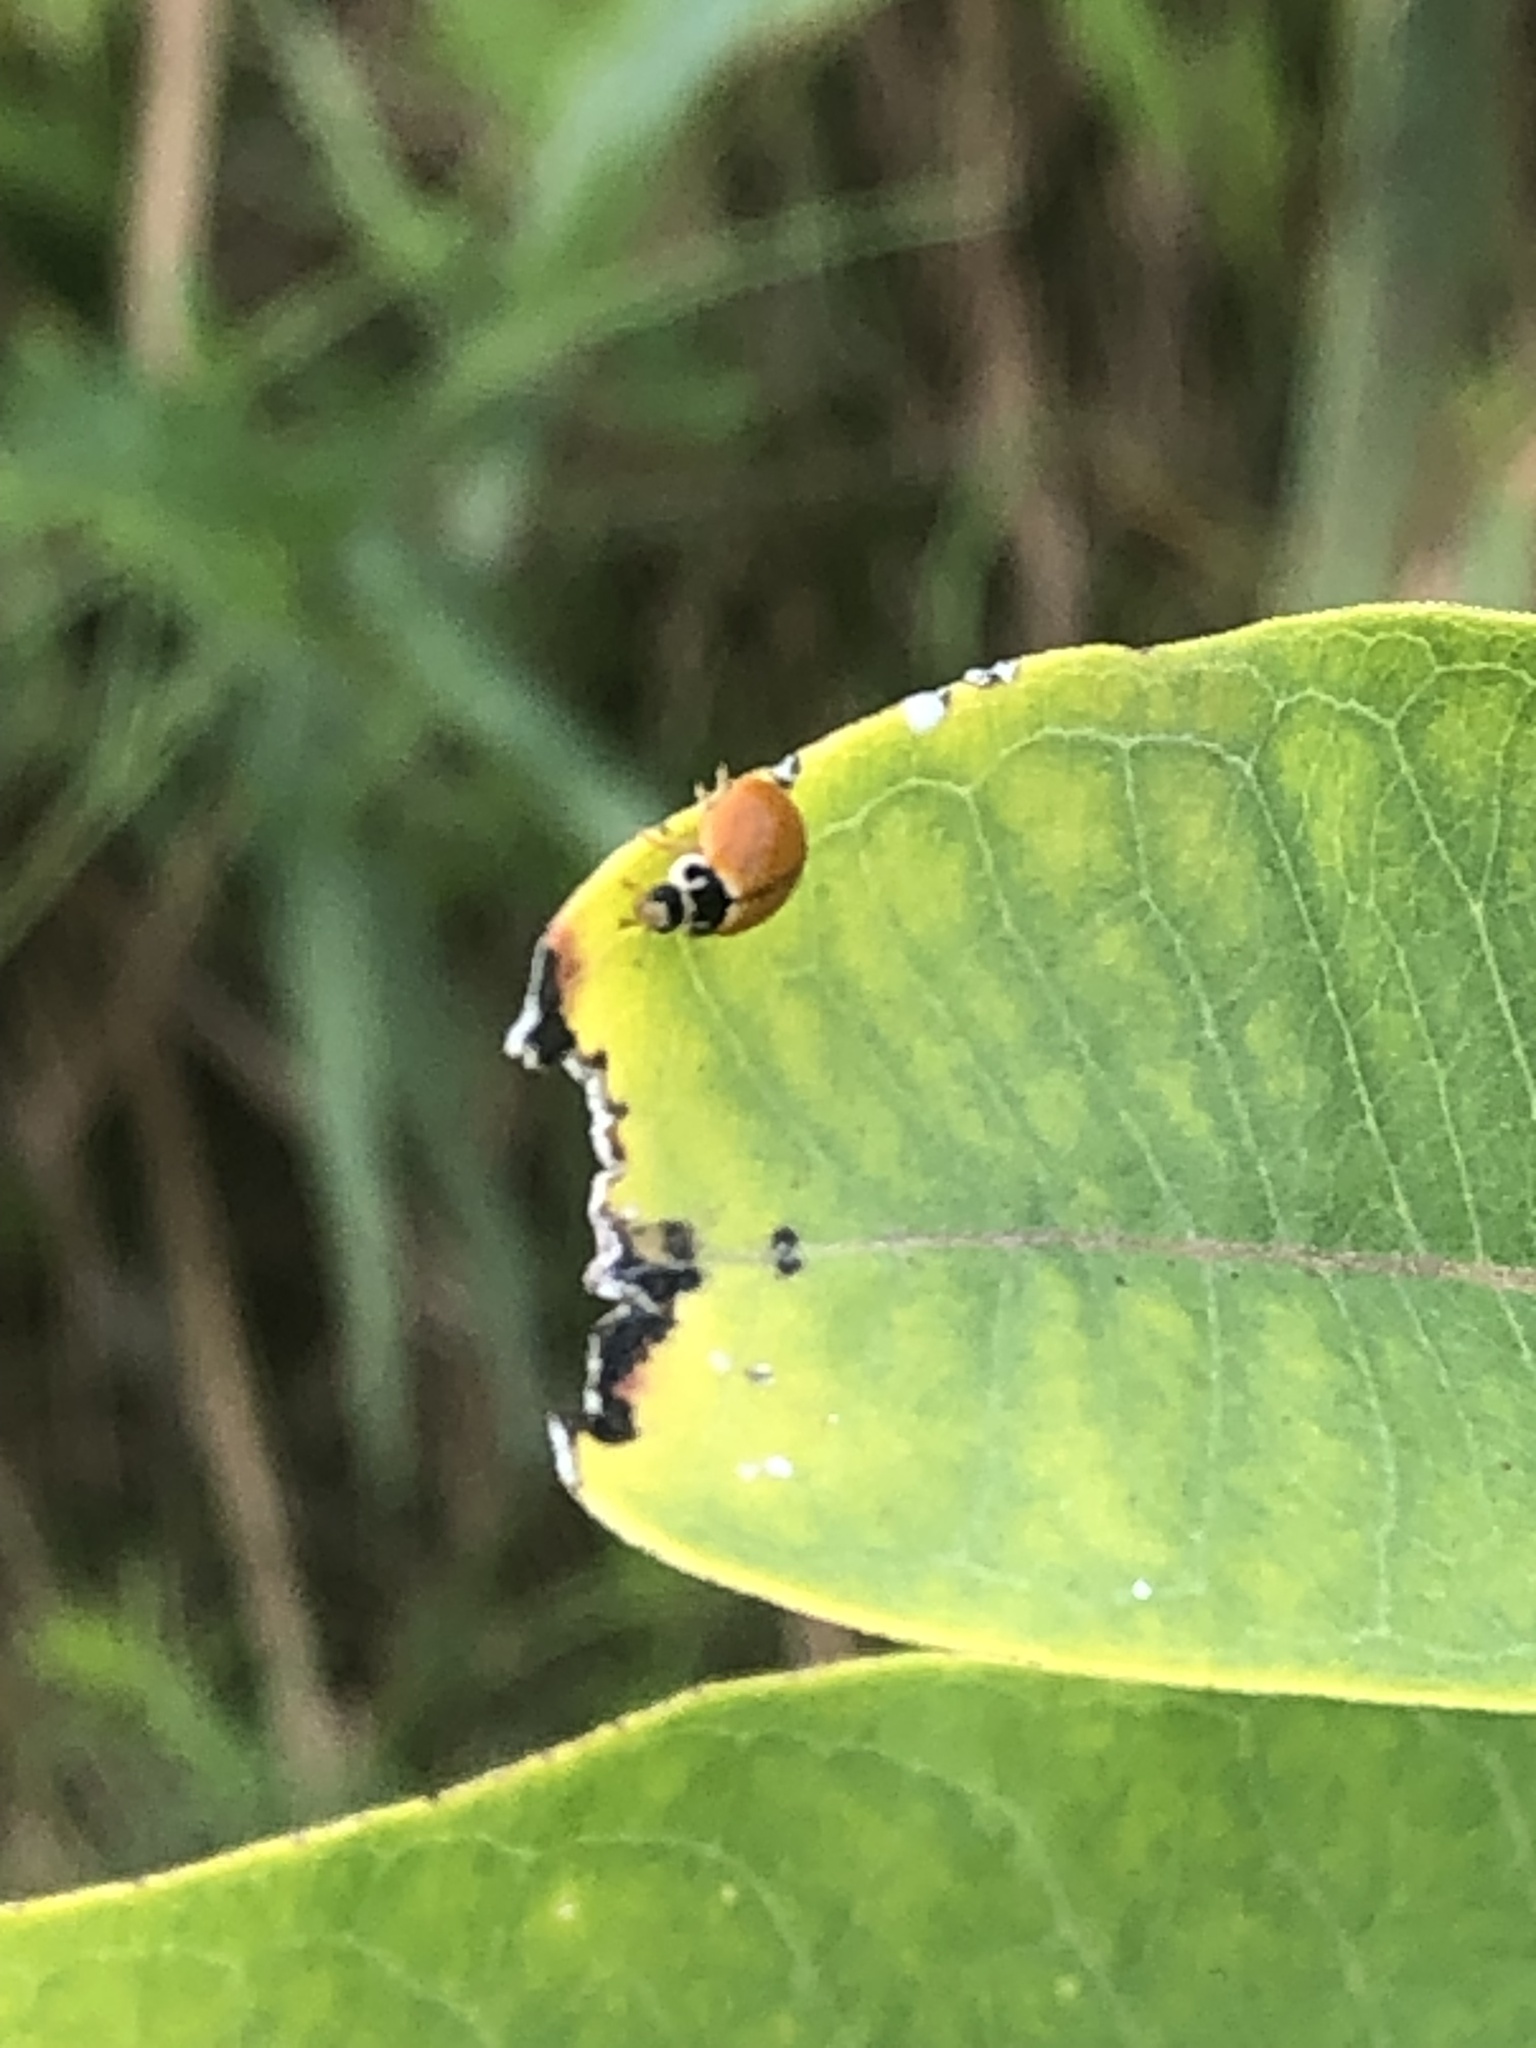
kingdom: Animalia
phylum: Arthropoda
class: Insecta
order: Coleoptera
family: Coccinellidae
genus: Cycloneda
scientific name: Cycloneda munda
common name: Polished lady beetle
